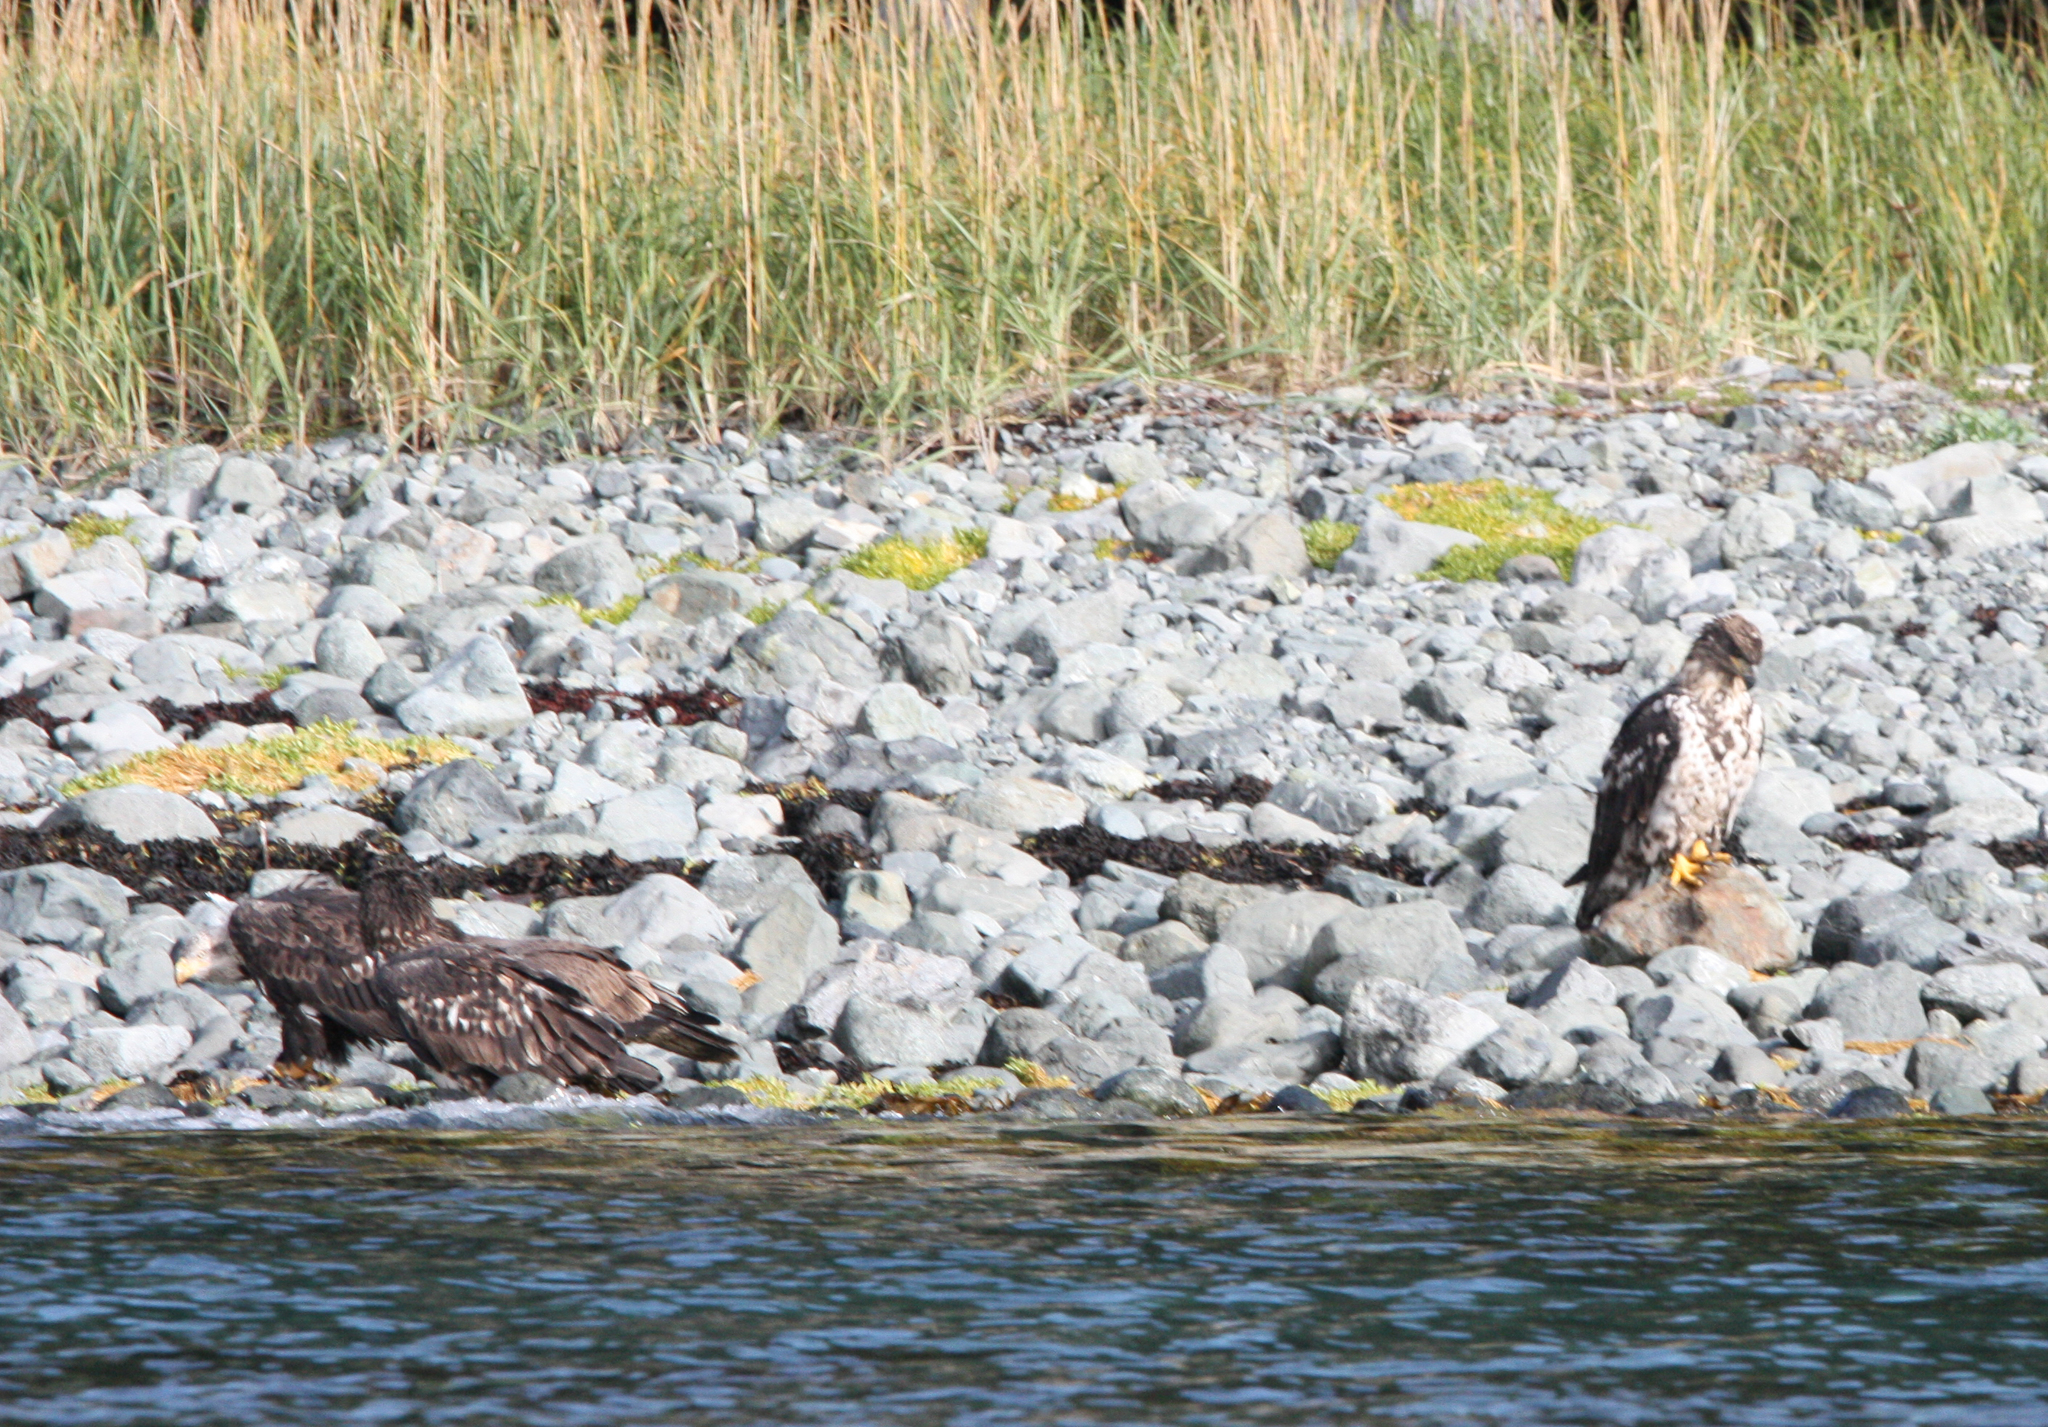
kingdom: Animalia
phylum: Chordata
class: Aves
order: Accipitriformes
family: Accipitridae
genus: Haliaeetus
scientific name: Haliaeetus leucocephalus
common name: Bald eagle
